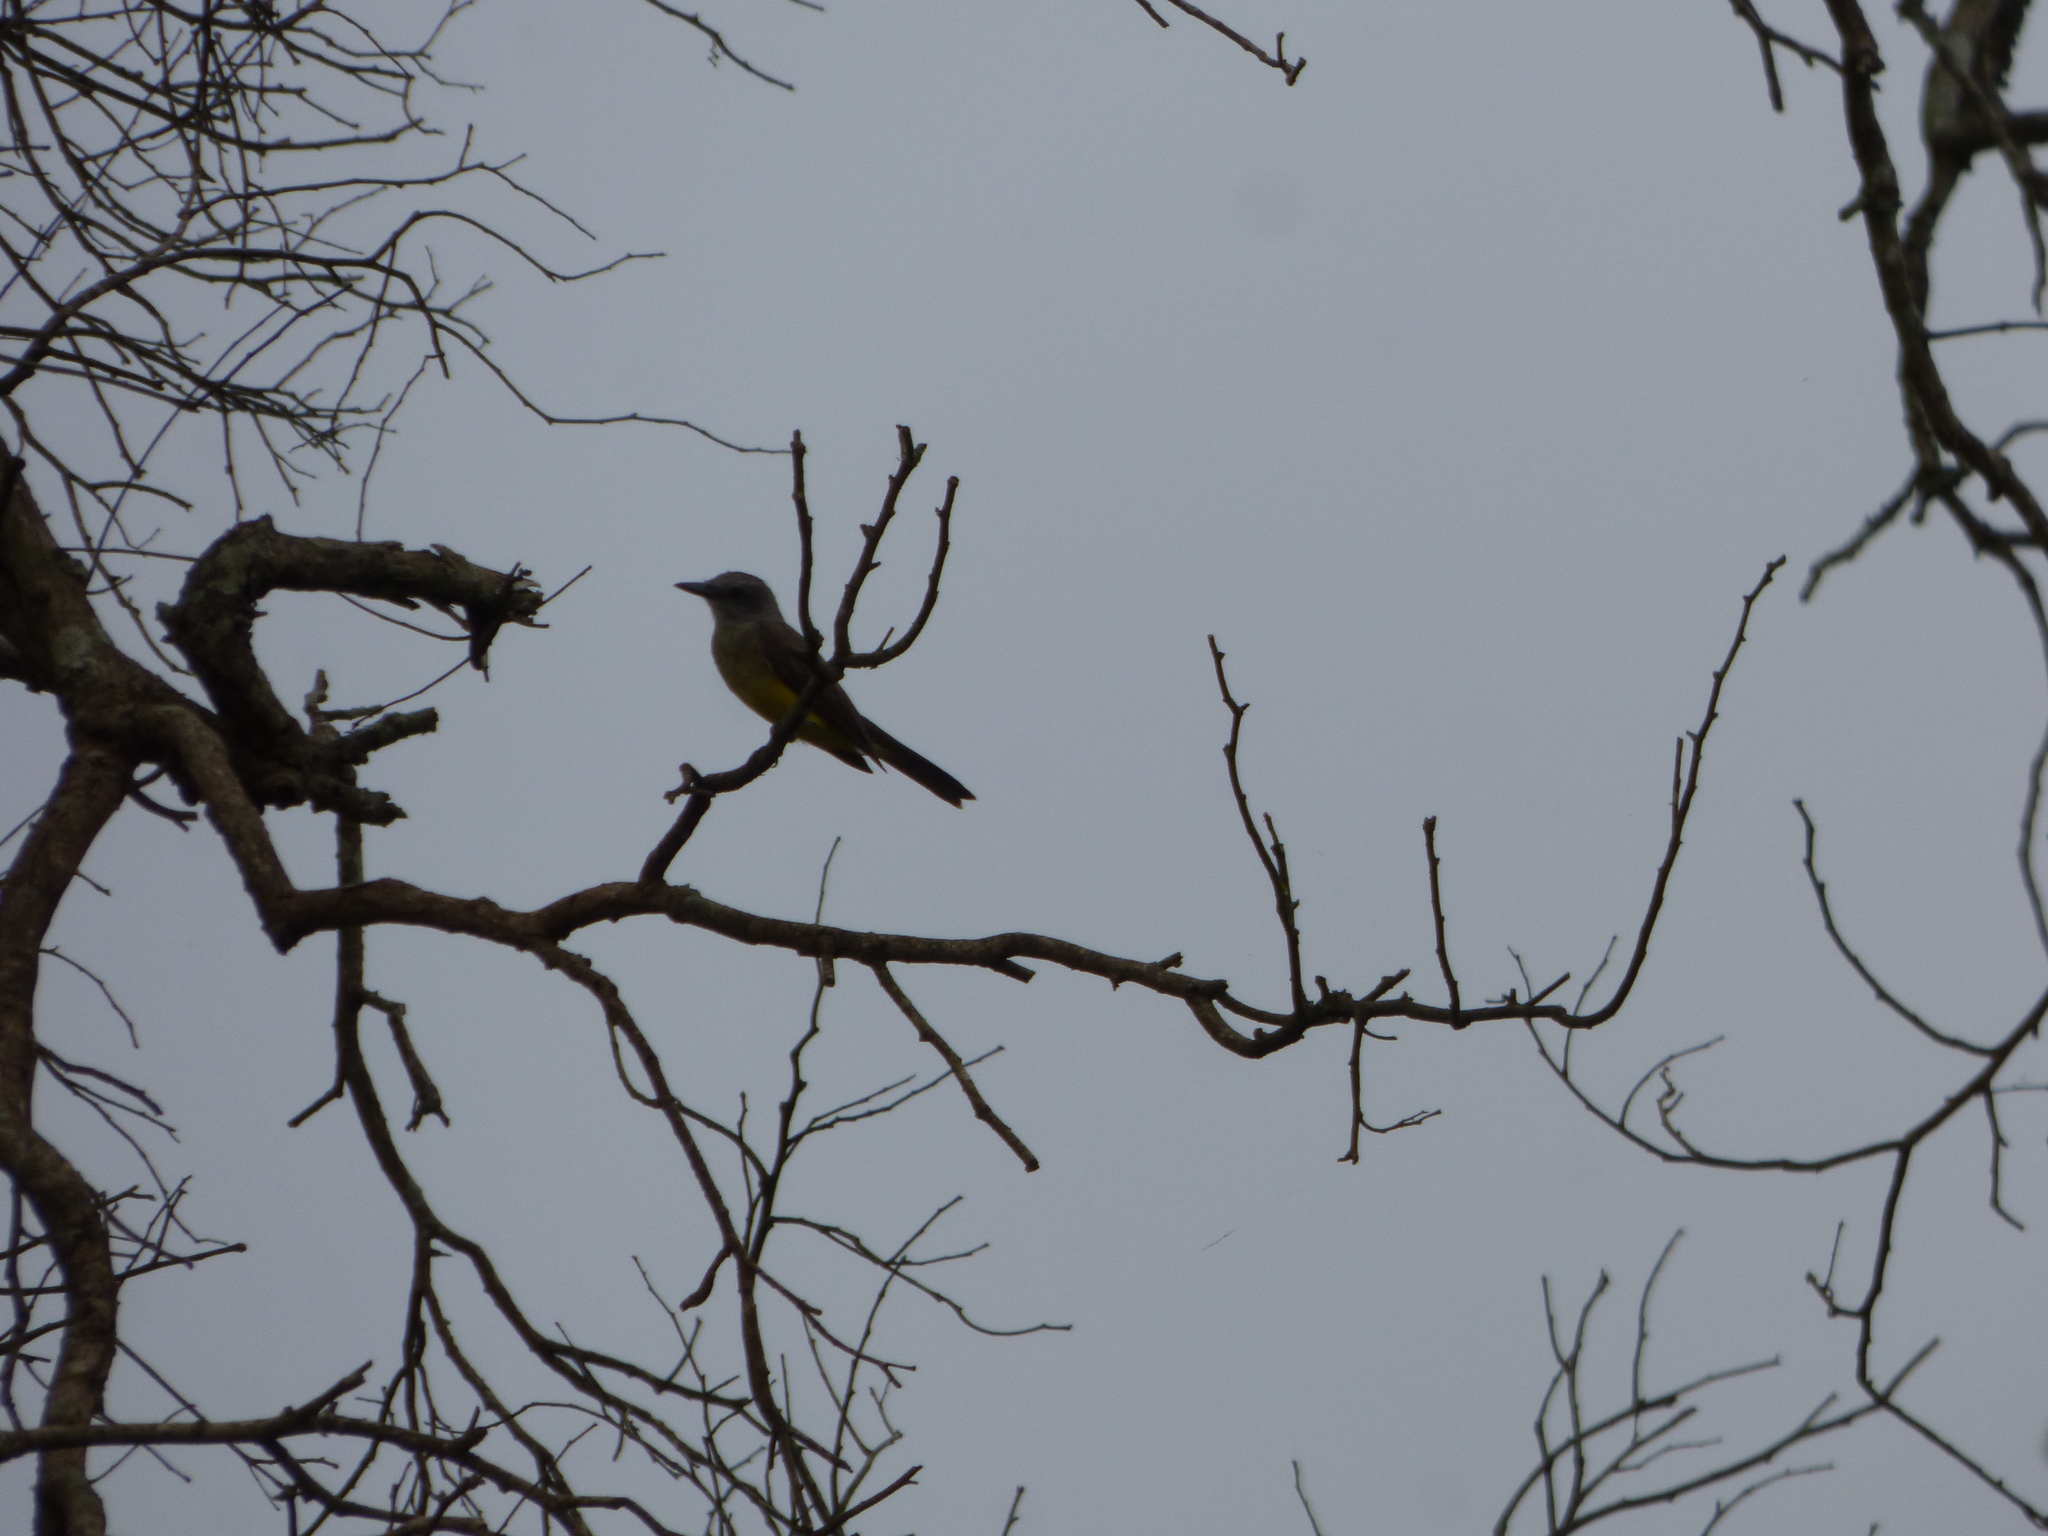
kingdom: Animalia
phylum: Chordata
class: Aves
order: Passeriformes
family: Tyrannidae
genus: Tyrannus
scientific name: Tyrannus melancholicus
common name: Tropical kingbird
